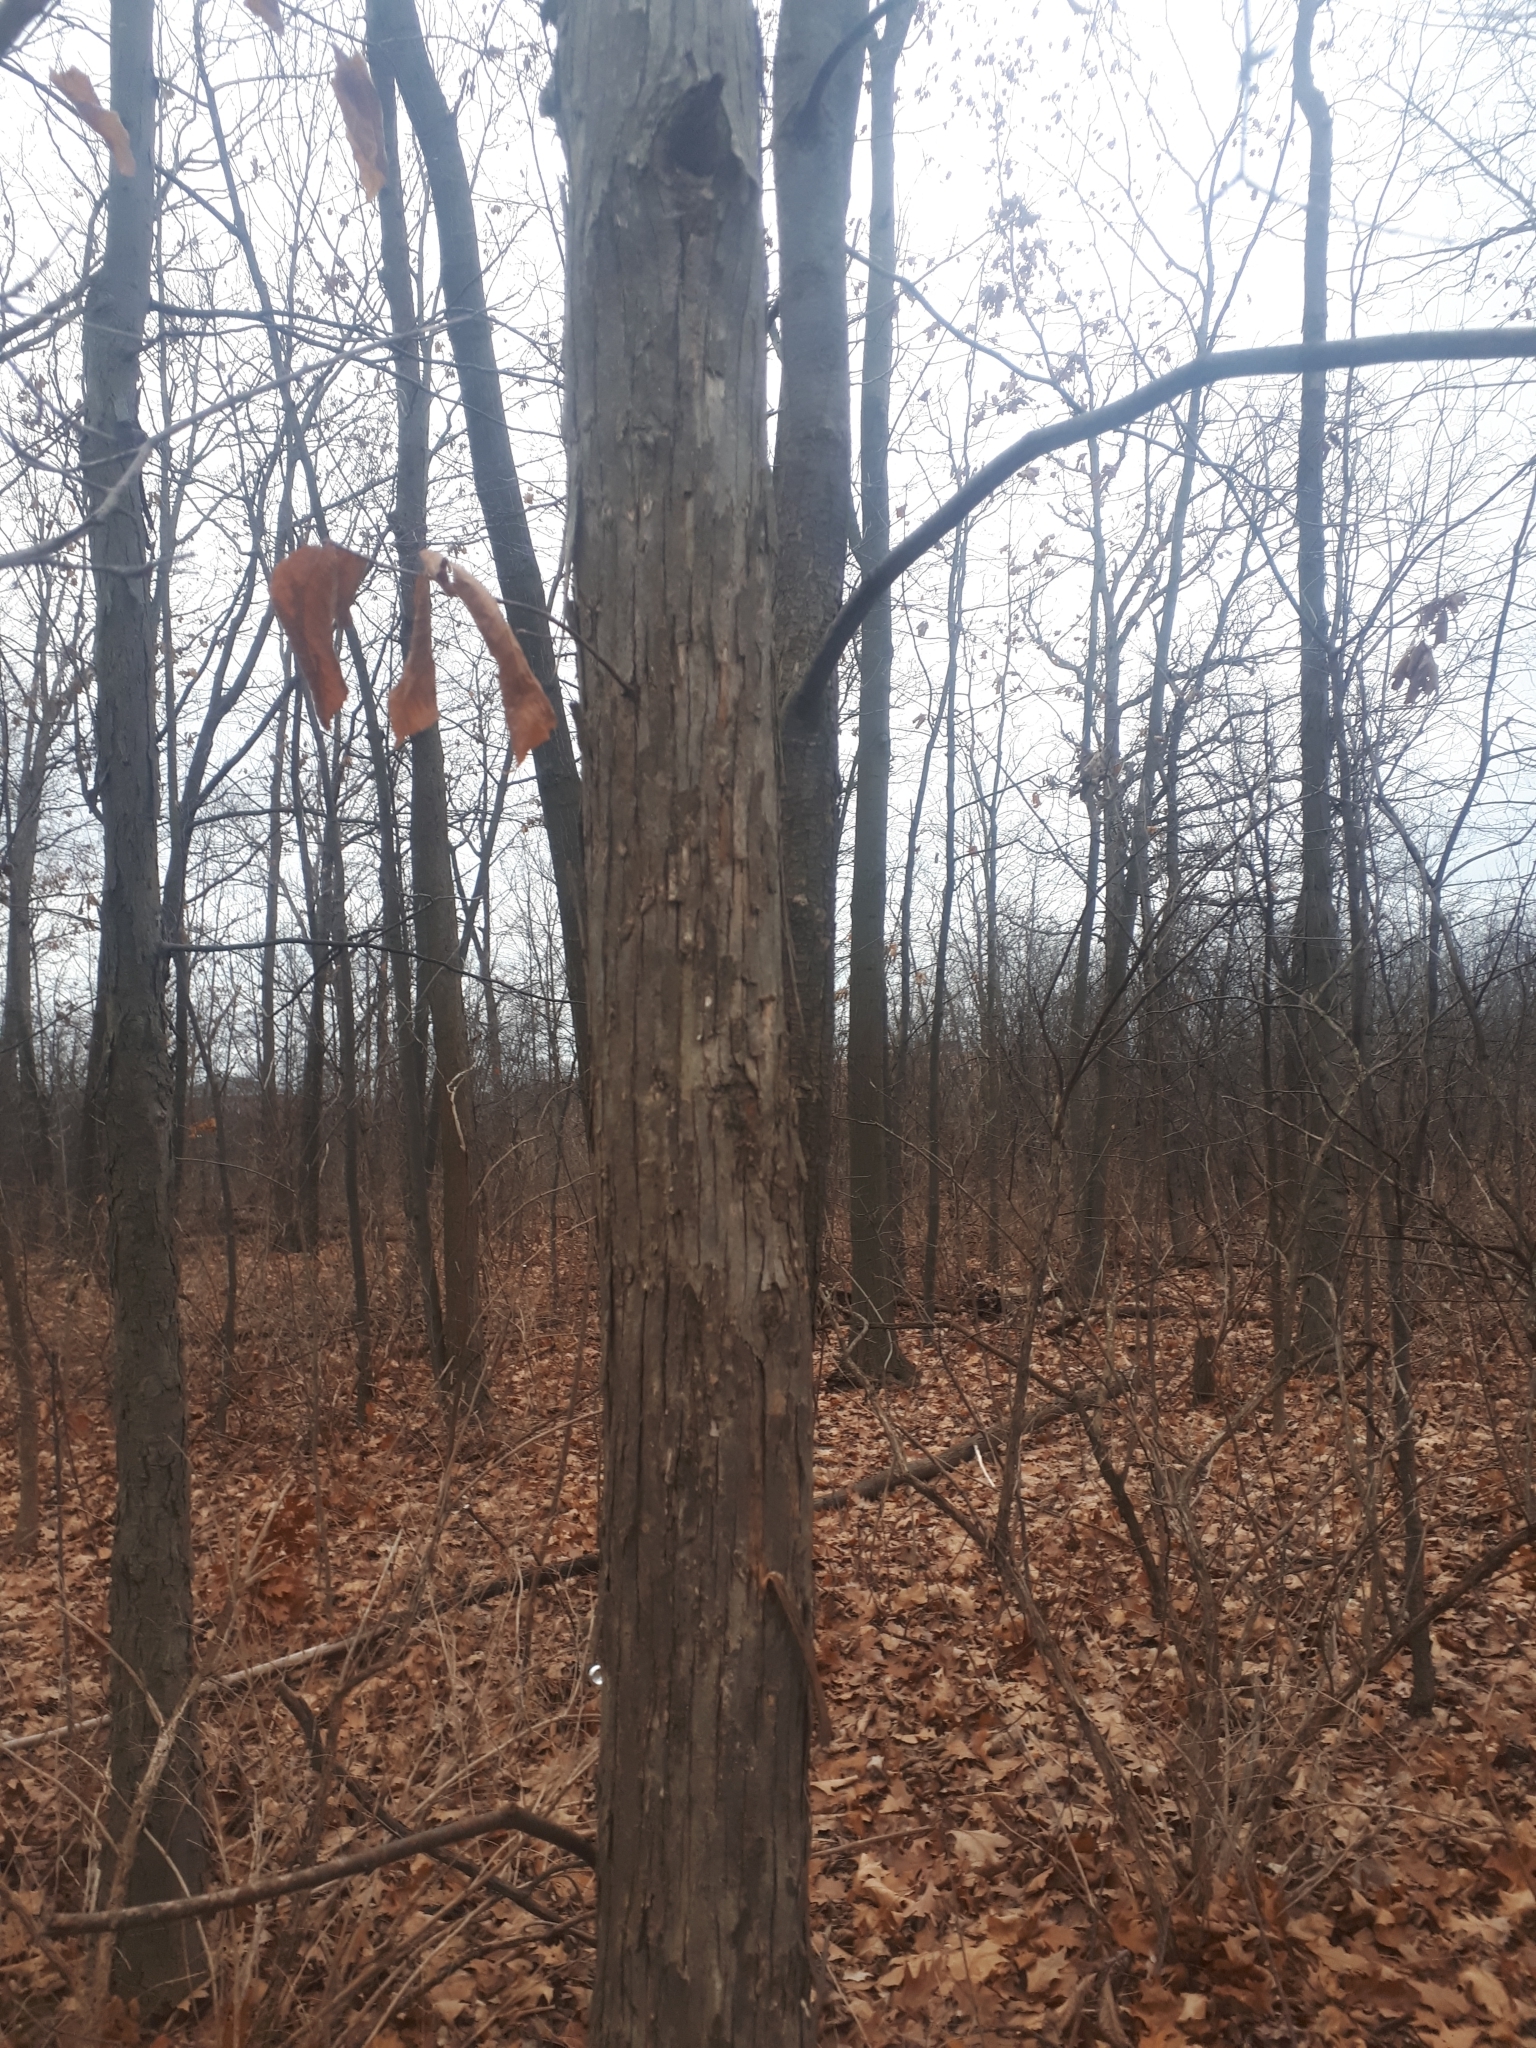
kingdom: Plantae
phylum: Tracheophyta
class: Magnoliopsida
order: Fagales
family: Betulaceae
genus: Ostrya
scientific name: Ostrya virginiana
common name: Ironwood
